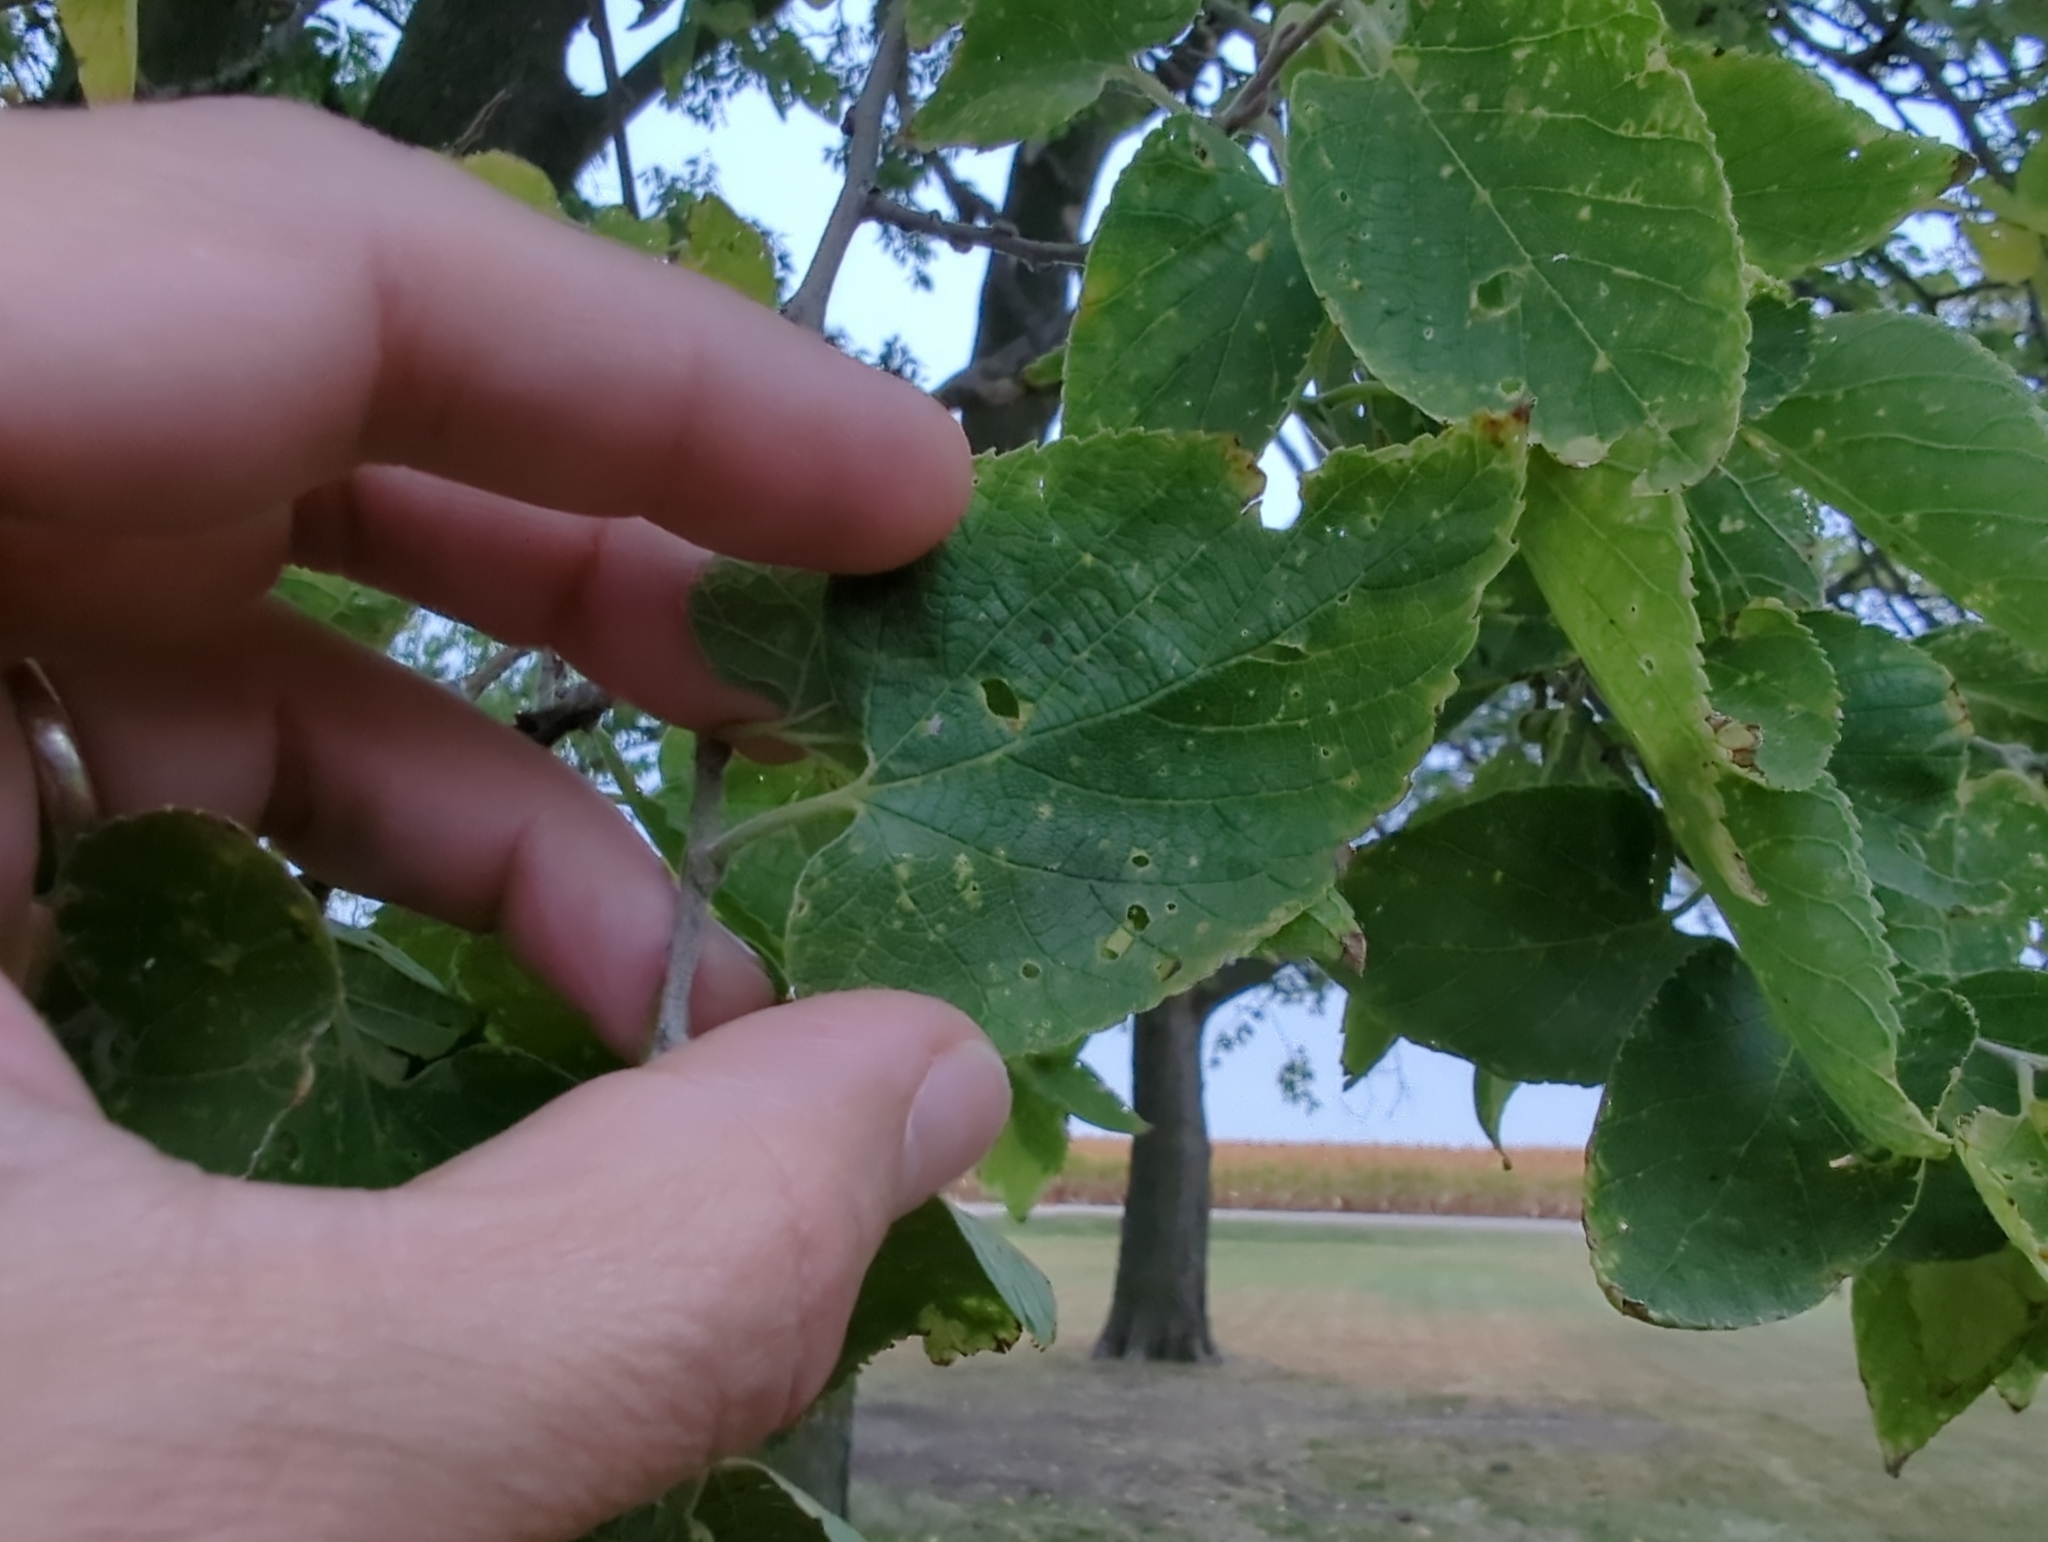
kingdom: Animalia
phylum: Arthropoda
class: Insecta
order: Hemiptera
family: Aphalaridae
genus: Pachypsylla
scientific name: Pachypsylla celtidismamma
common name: Hackberry nipplegall psyllid
